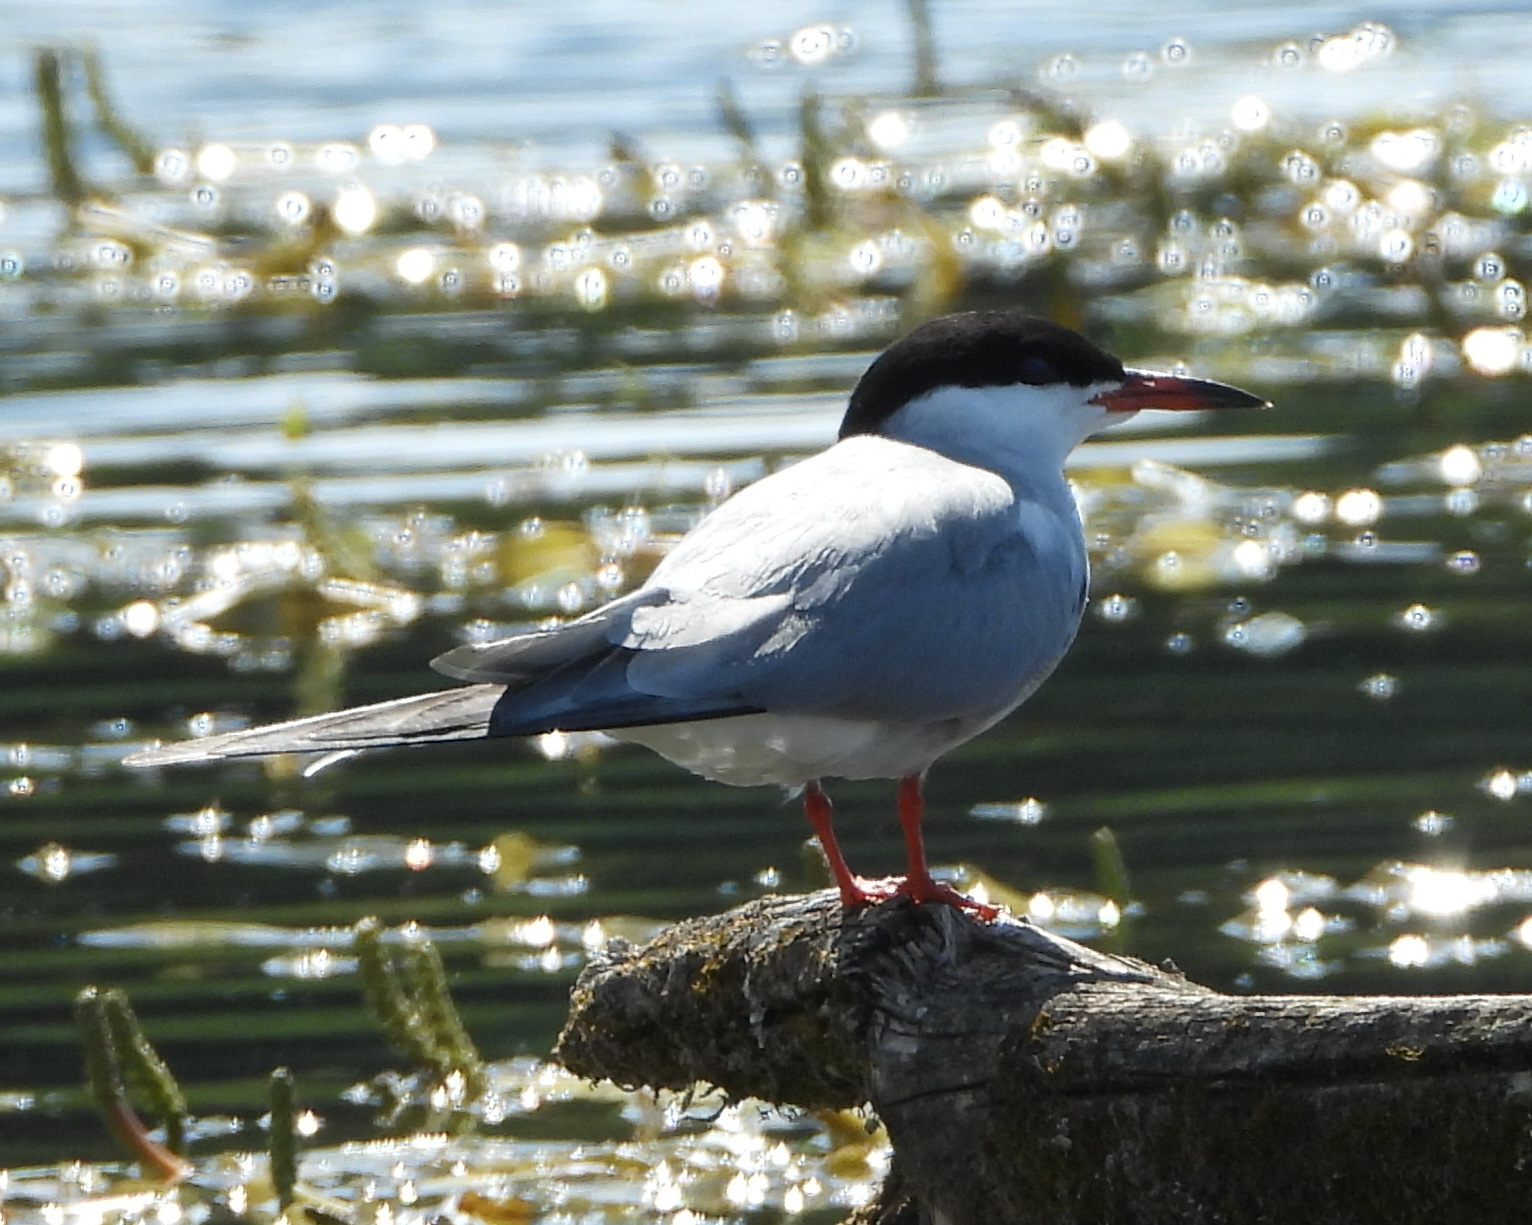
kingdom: Animalia
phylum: Chordata
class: Aves
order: Charadriiformes
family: Laridae
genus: Sterna
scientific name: Sterna hirundo
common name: Common tern
